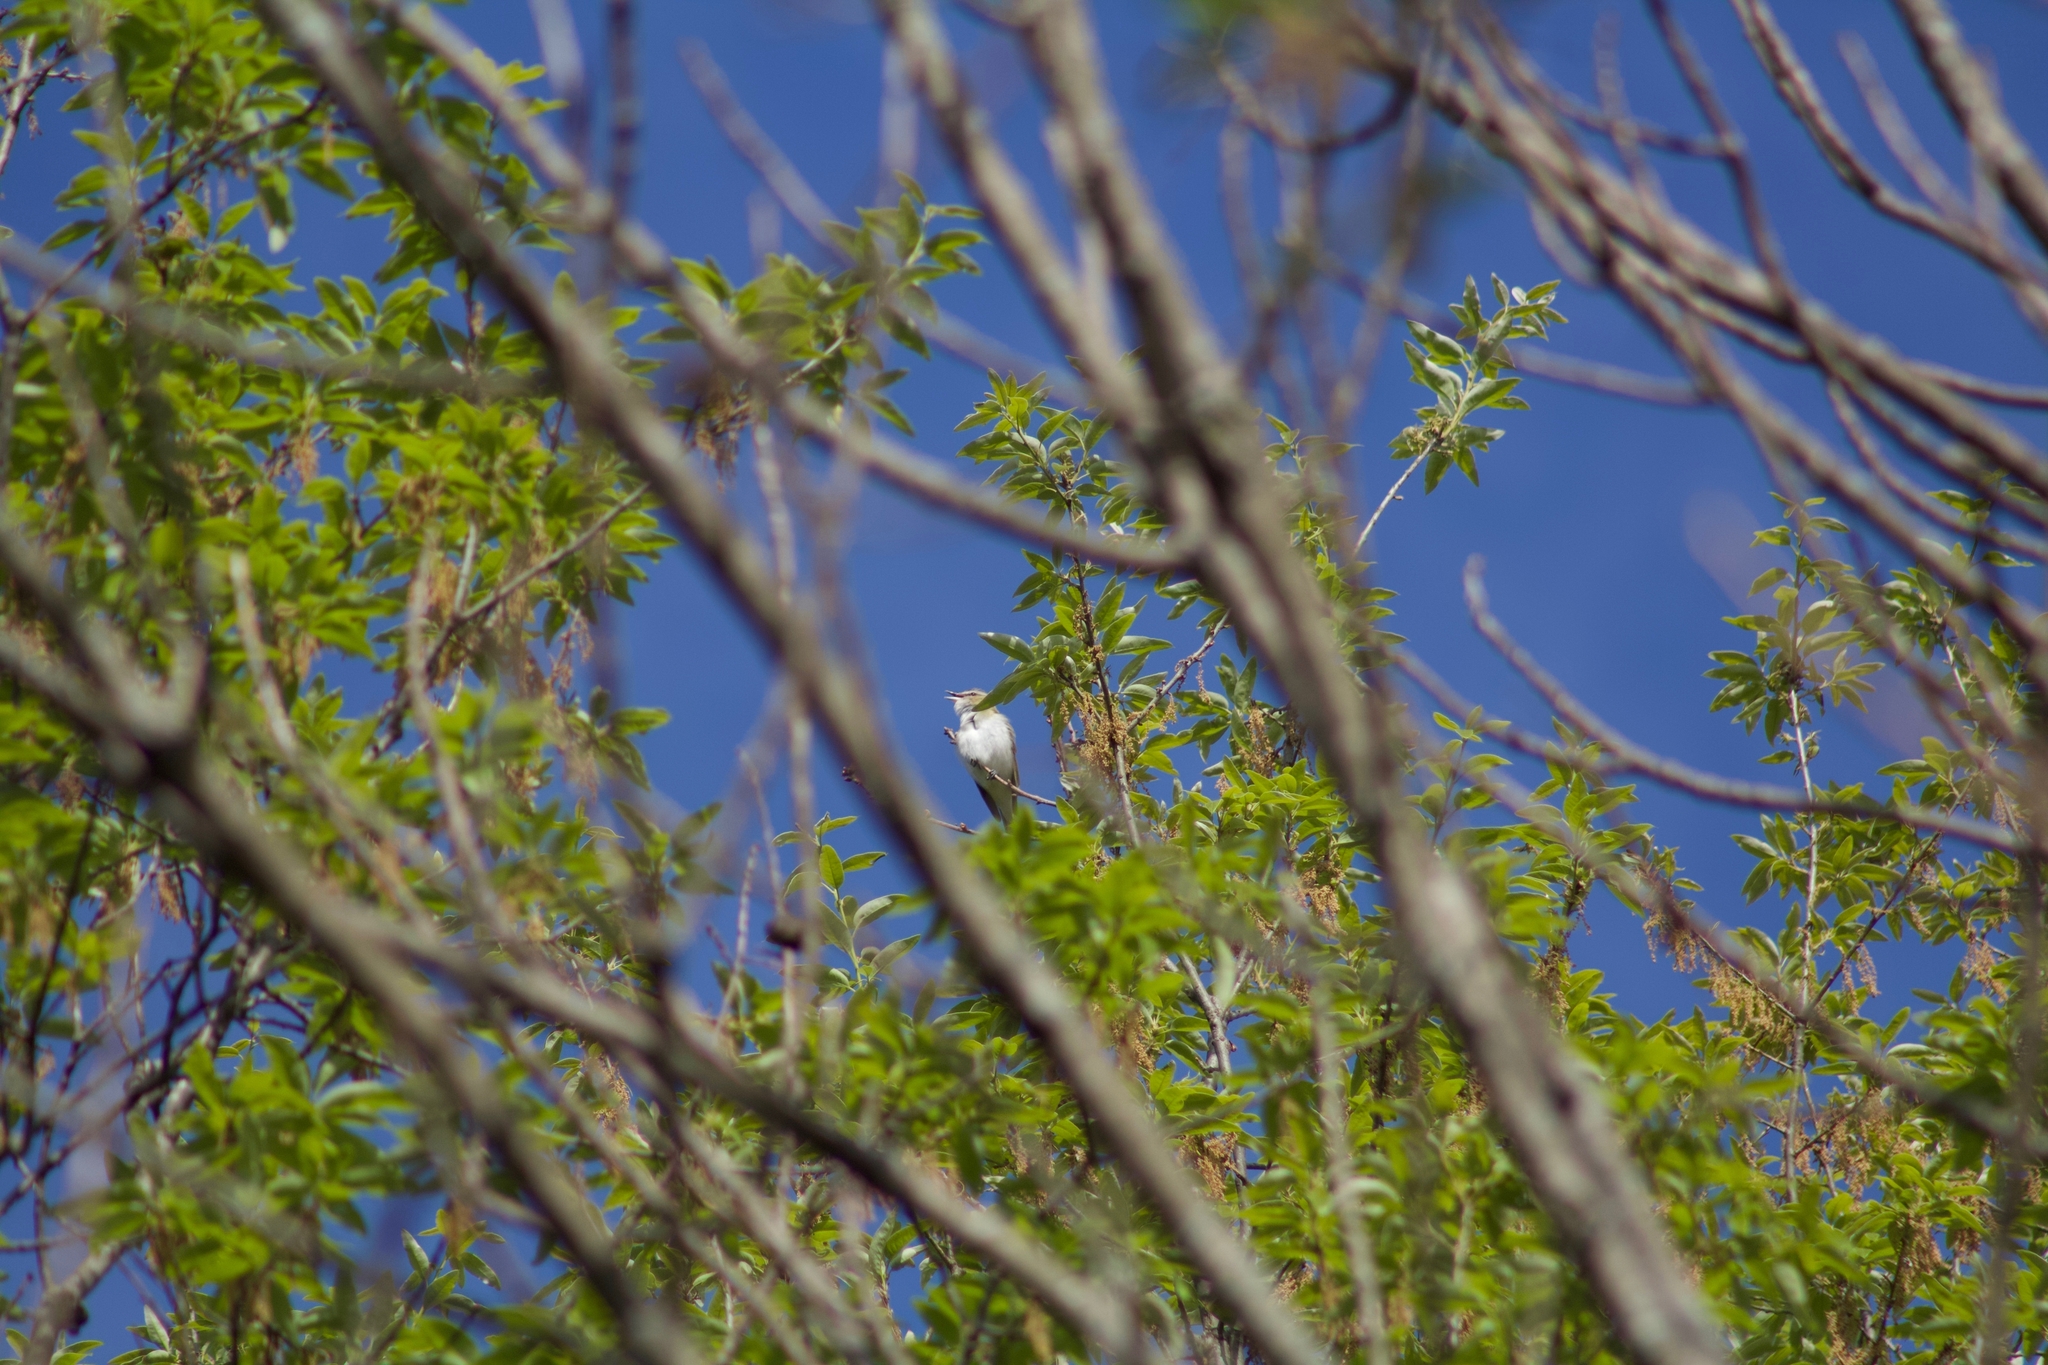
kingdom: Animalia
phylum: Chordata
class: Aves
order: Passeriformes
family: Vireonidae
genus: Vireo
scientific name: Vireo olivaceus
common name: Red-eyed vireo
